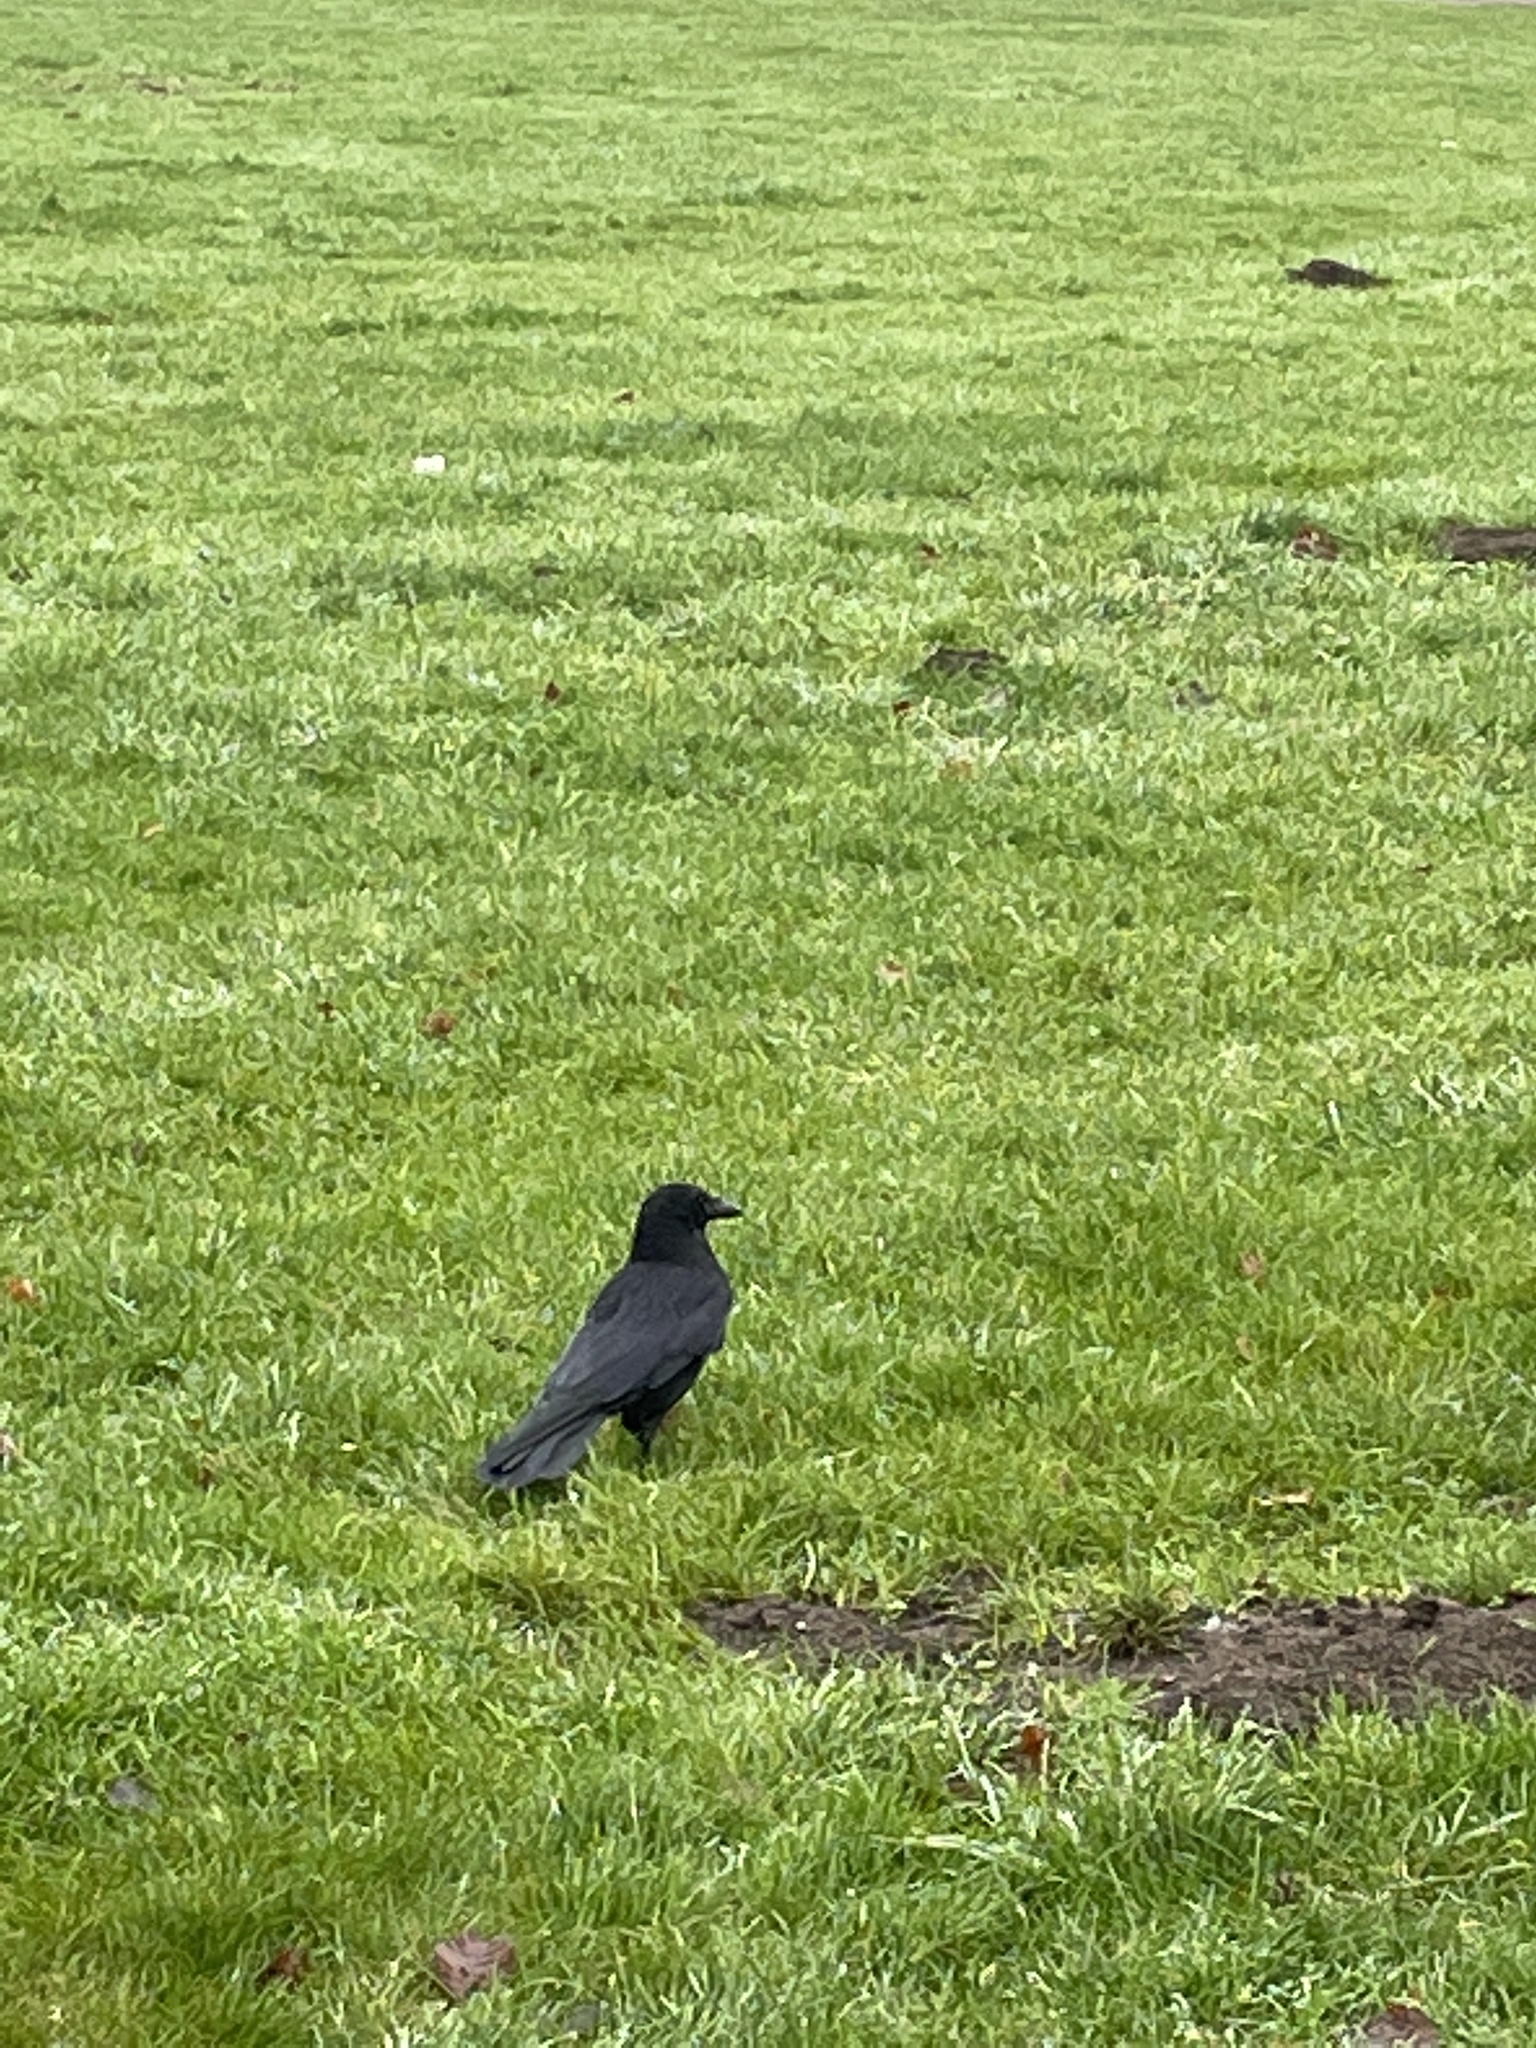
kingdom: Animalia
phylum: Chordata
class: Aves
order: Passeriformes
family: Corvidae
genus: Corvus
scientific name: Corvus corone
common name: Carrion crow
